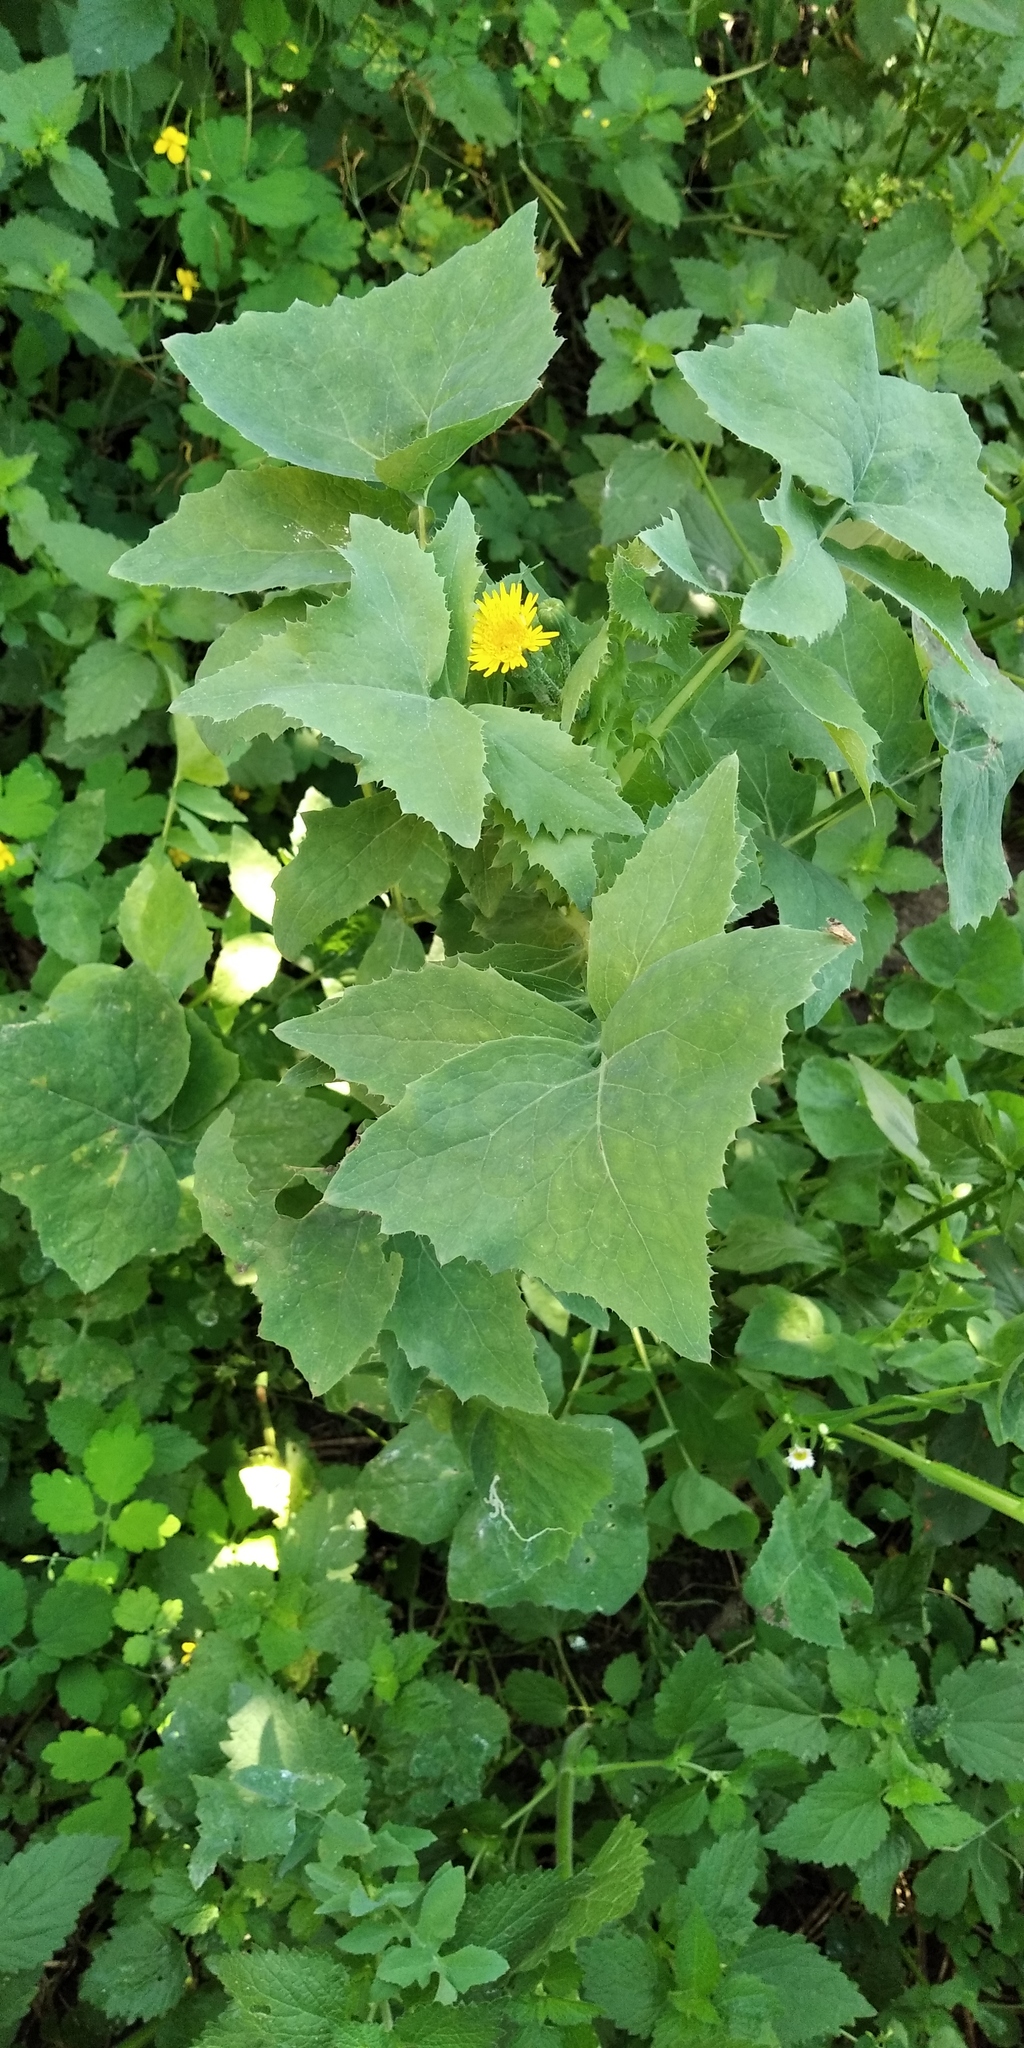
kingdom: Plantae
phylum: Tracheophyta
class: Magnoliopsida
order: Asterales
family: Asteraceae
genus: Sonchus
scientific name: Sonchus oleraceus
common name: Common sowthistle
